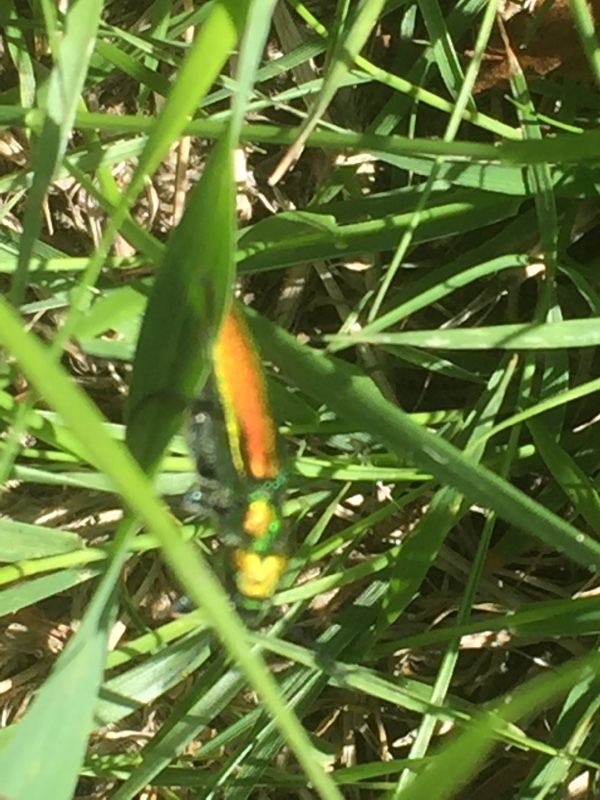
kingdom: Animalia
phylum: Arthropoda
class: Insecta
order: Coleoptera
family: Meloidae
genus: Lytta
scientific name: Lytta vesicatoria
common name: Spanish fly
